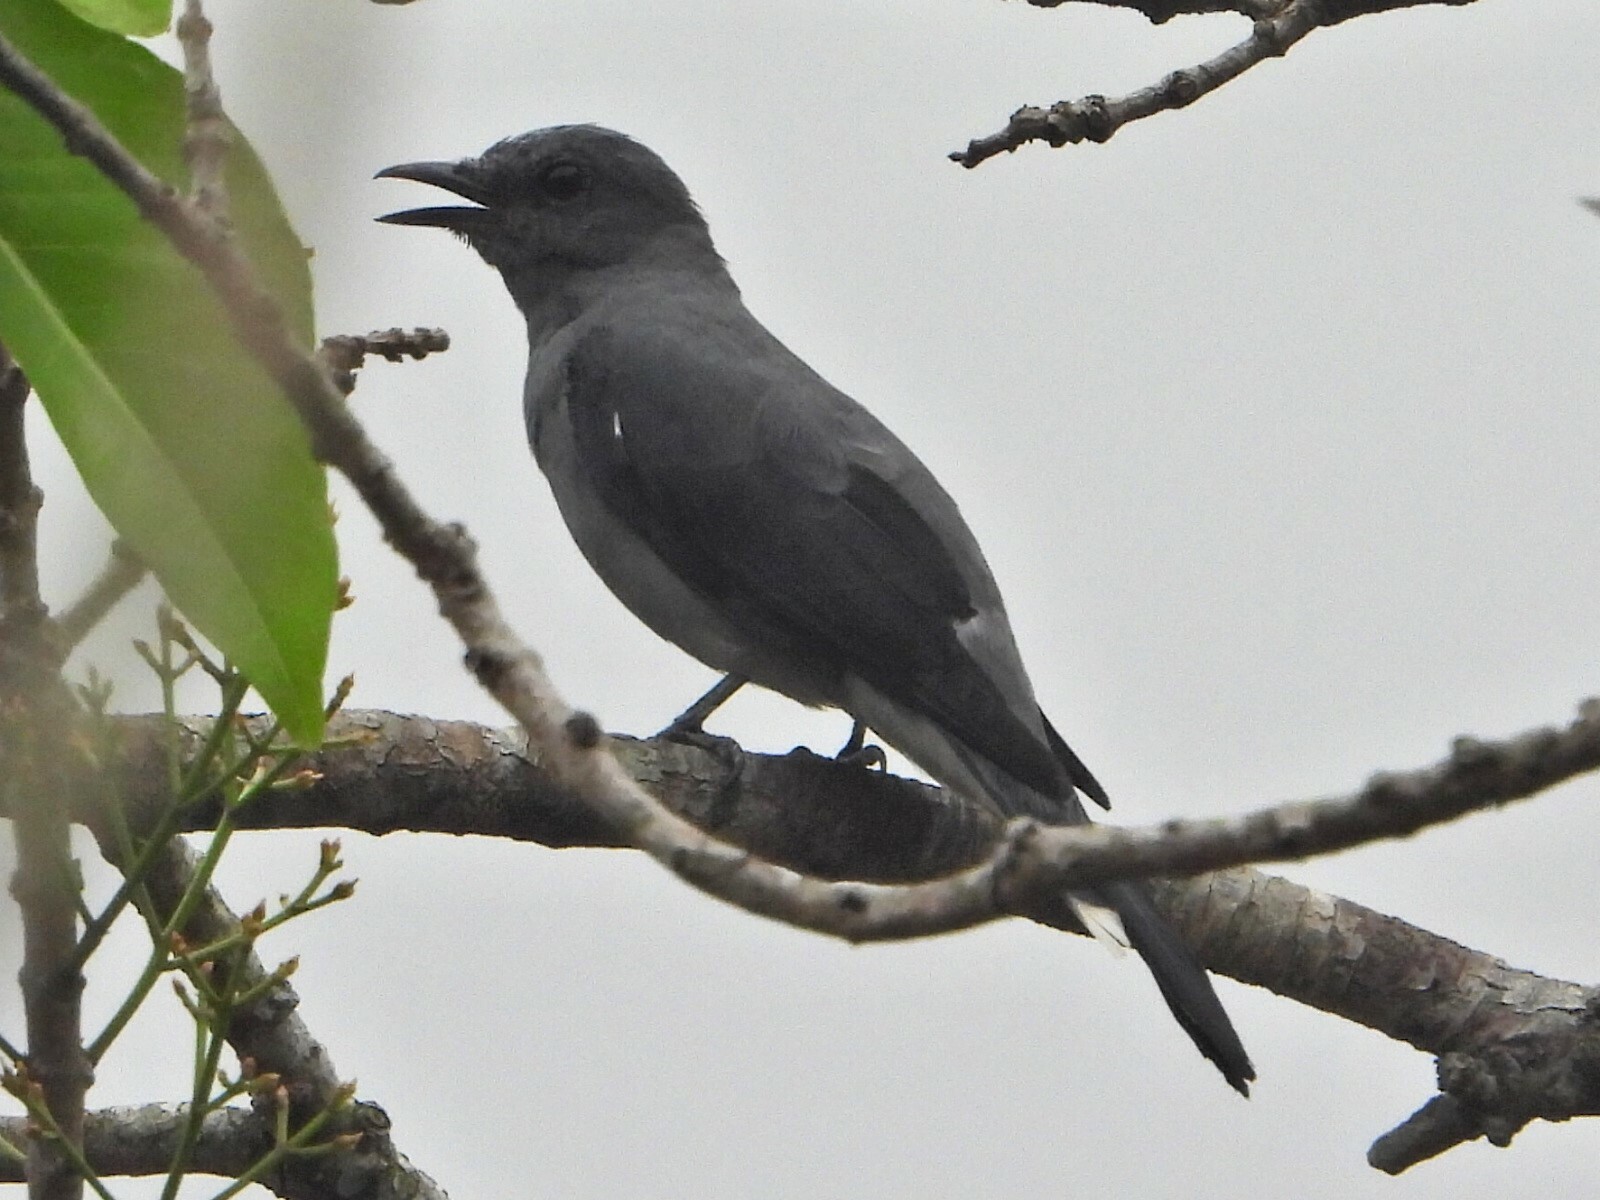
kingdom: Animalia
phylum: Chordata
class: Aves
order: Passeriformes
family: Campephagidae
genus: Coracina
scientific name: Coracina melaschistos
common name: Black-winged cuckooshrike
